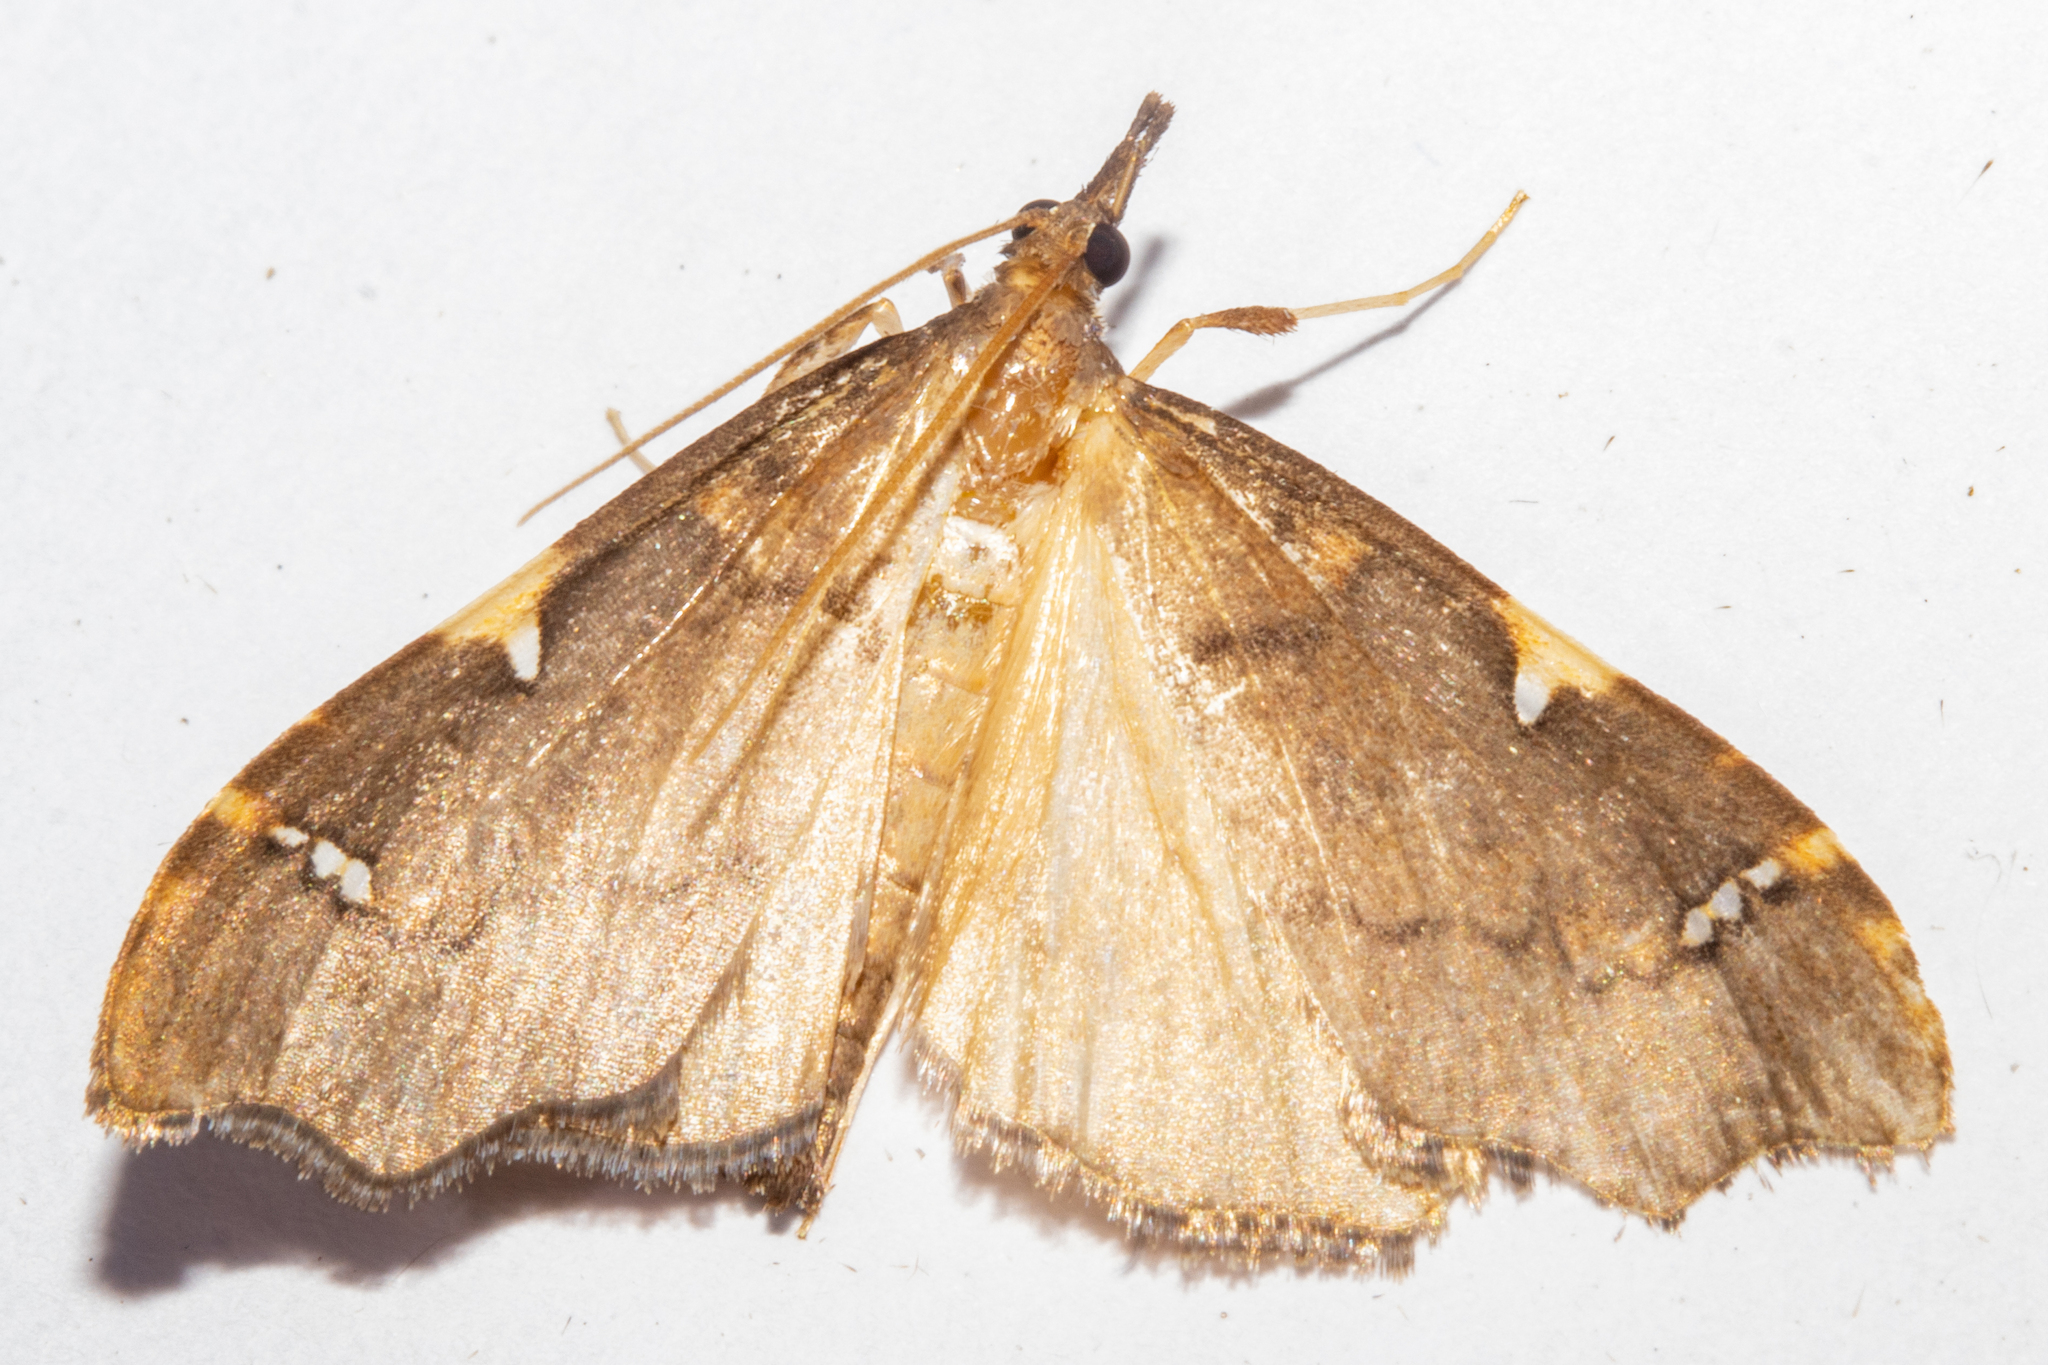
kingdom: Animalia
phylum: Arthropoda
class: Insecta
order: Lepidoptera
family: Crambidae
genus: Deana
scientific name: Deana hybreasalis
